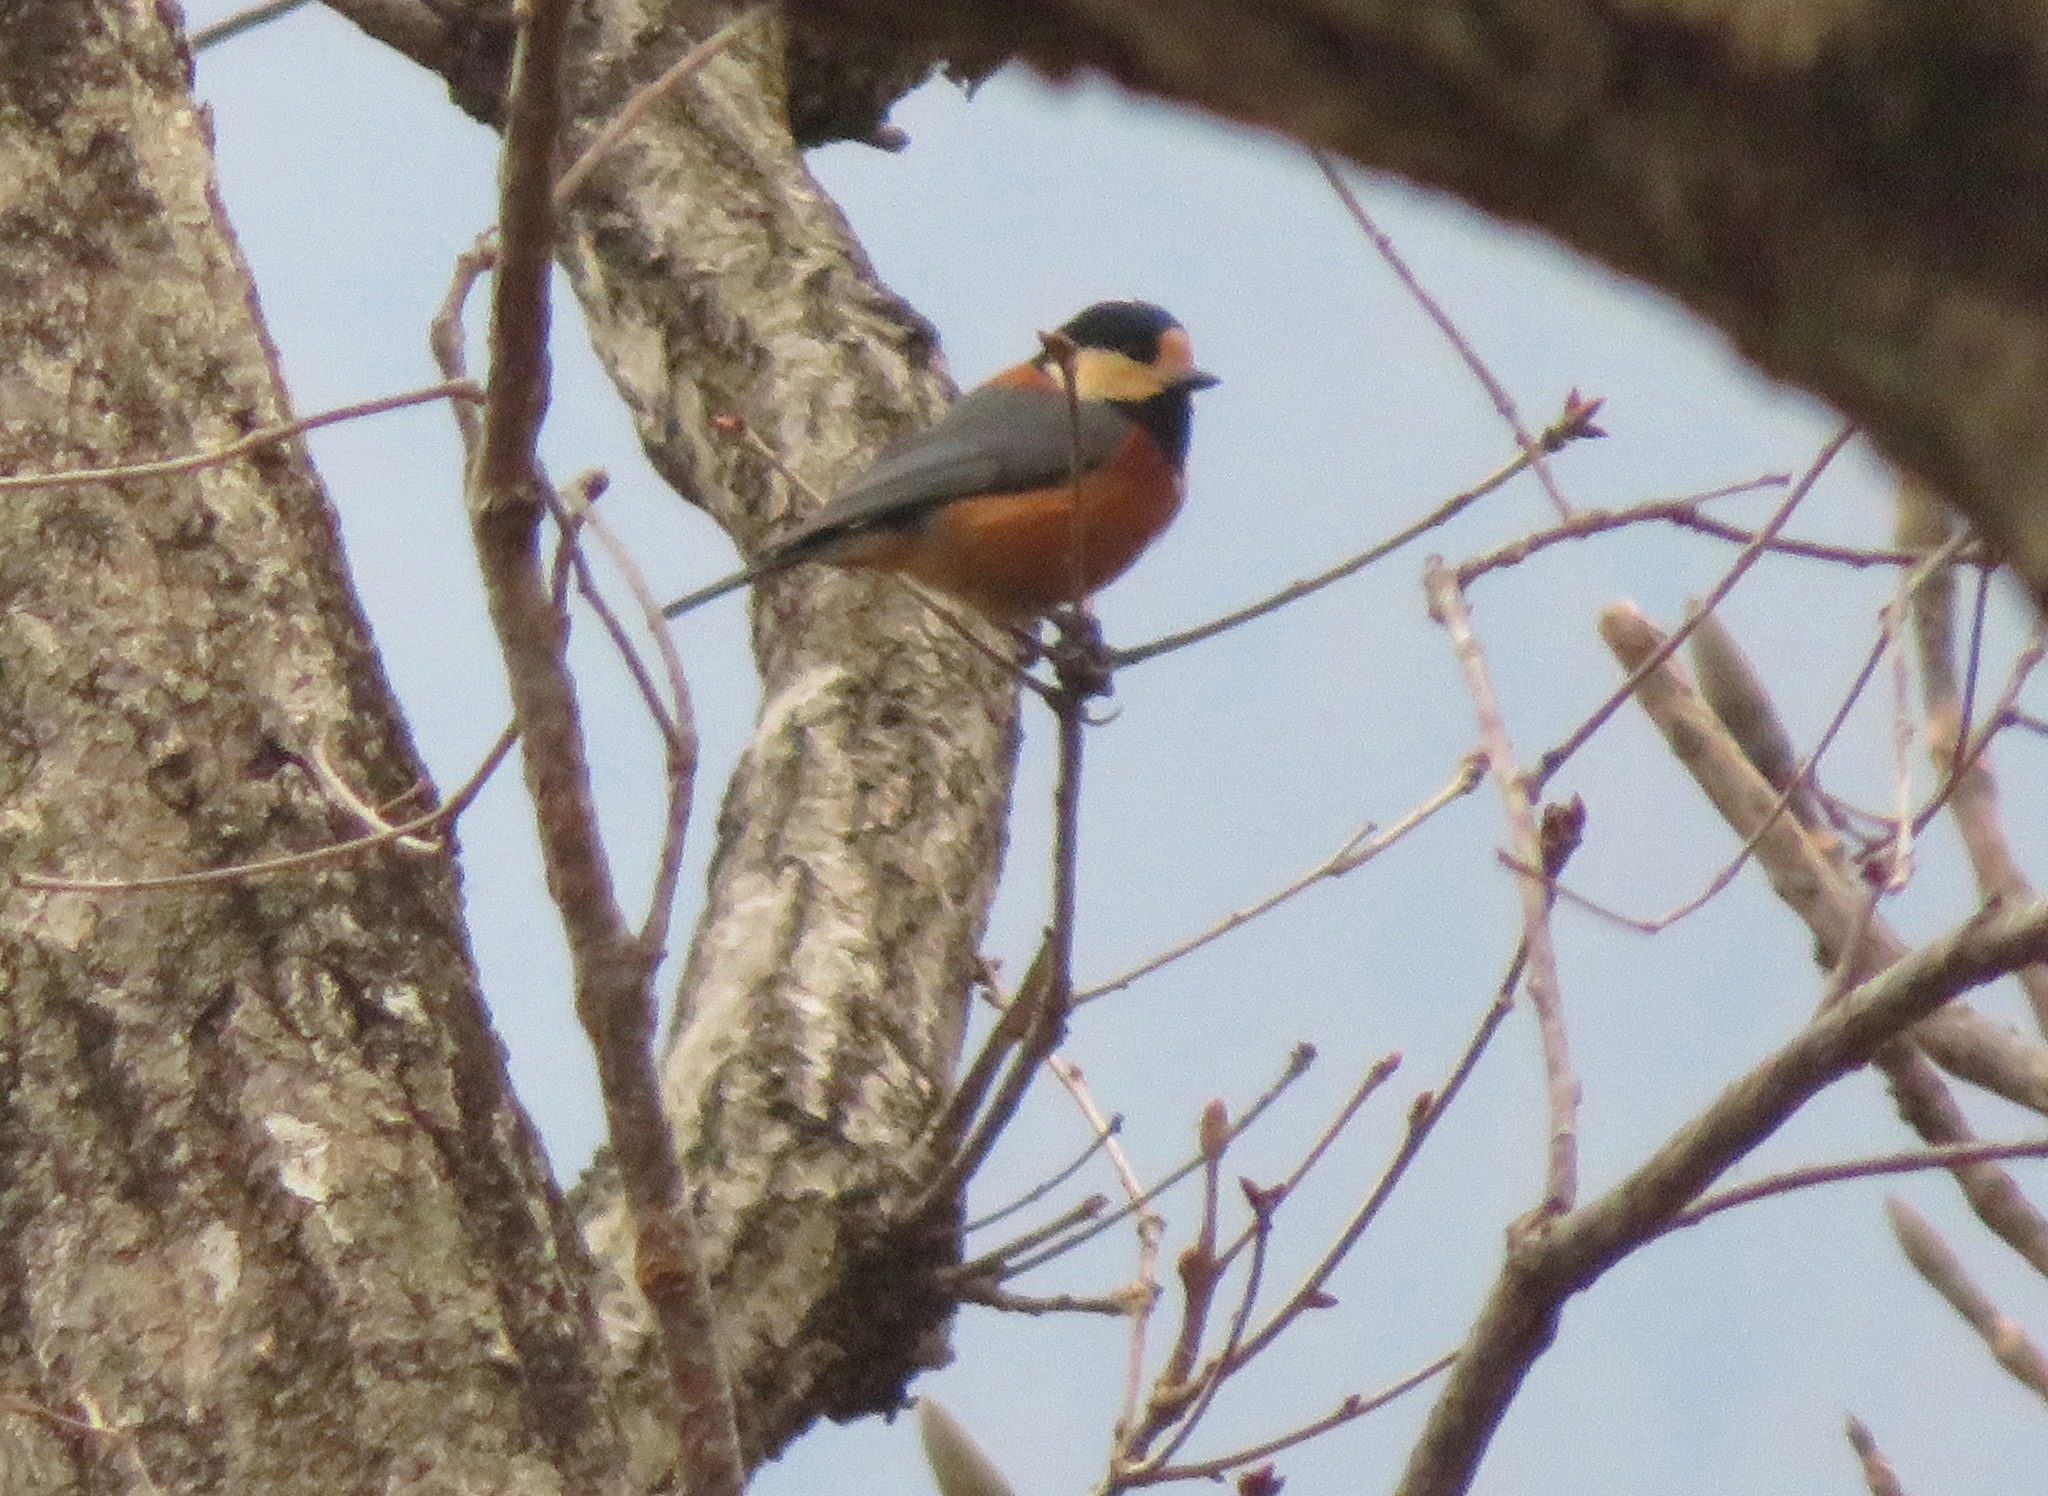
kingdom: Animalia
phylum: Chordata
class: Aves
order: Passeriformes
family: Paridae
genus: Poecile
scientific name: Poecile varius
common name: Varied tit
